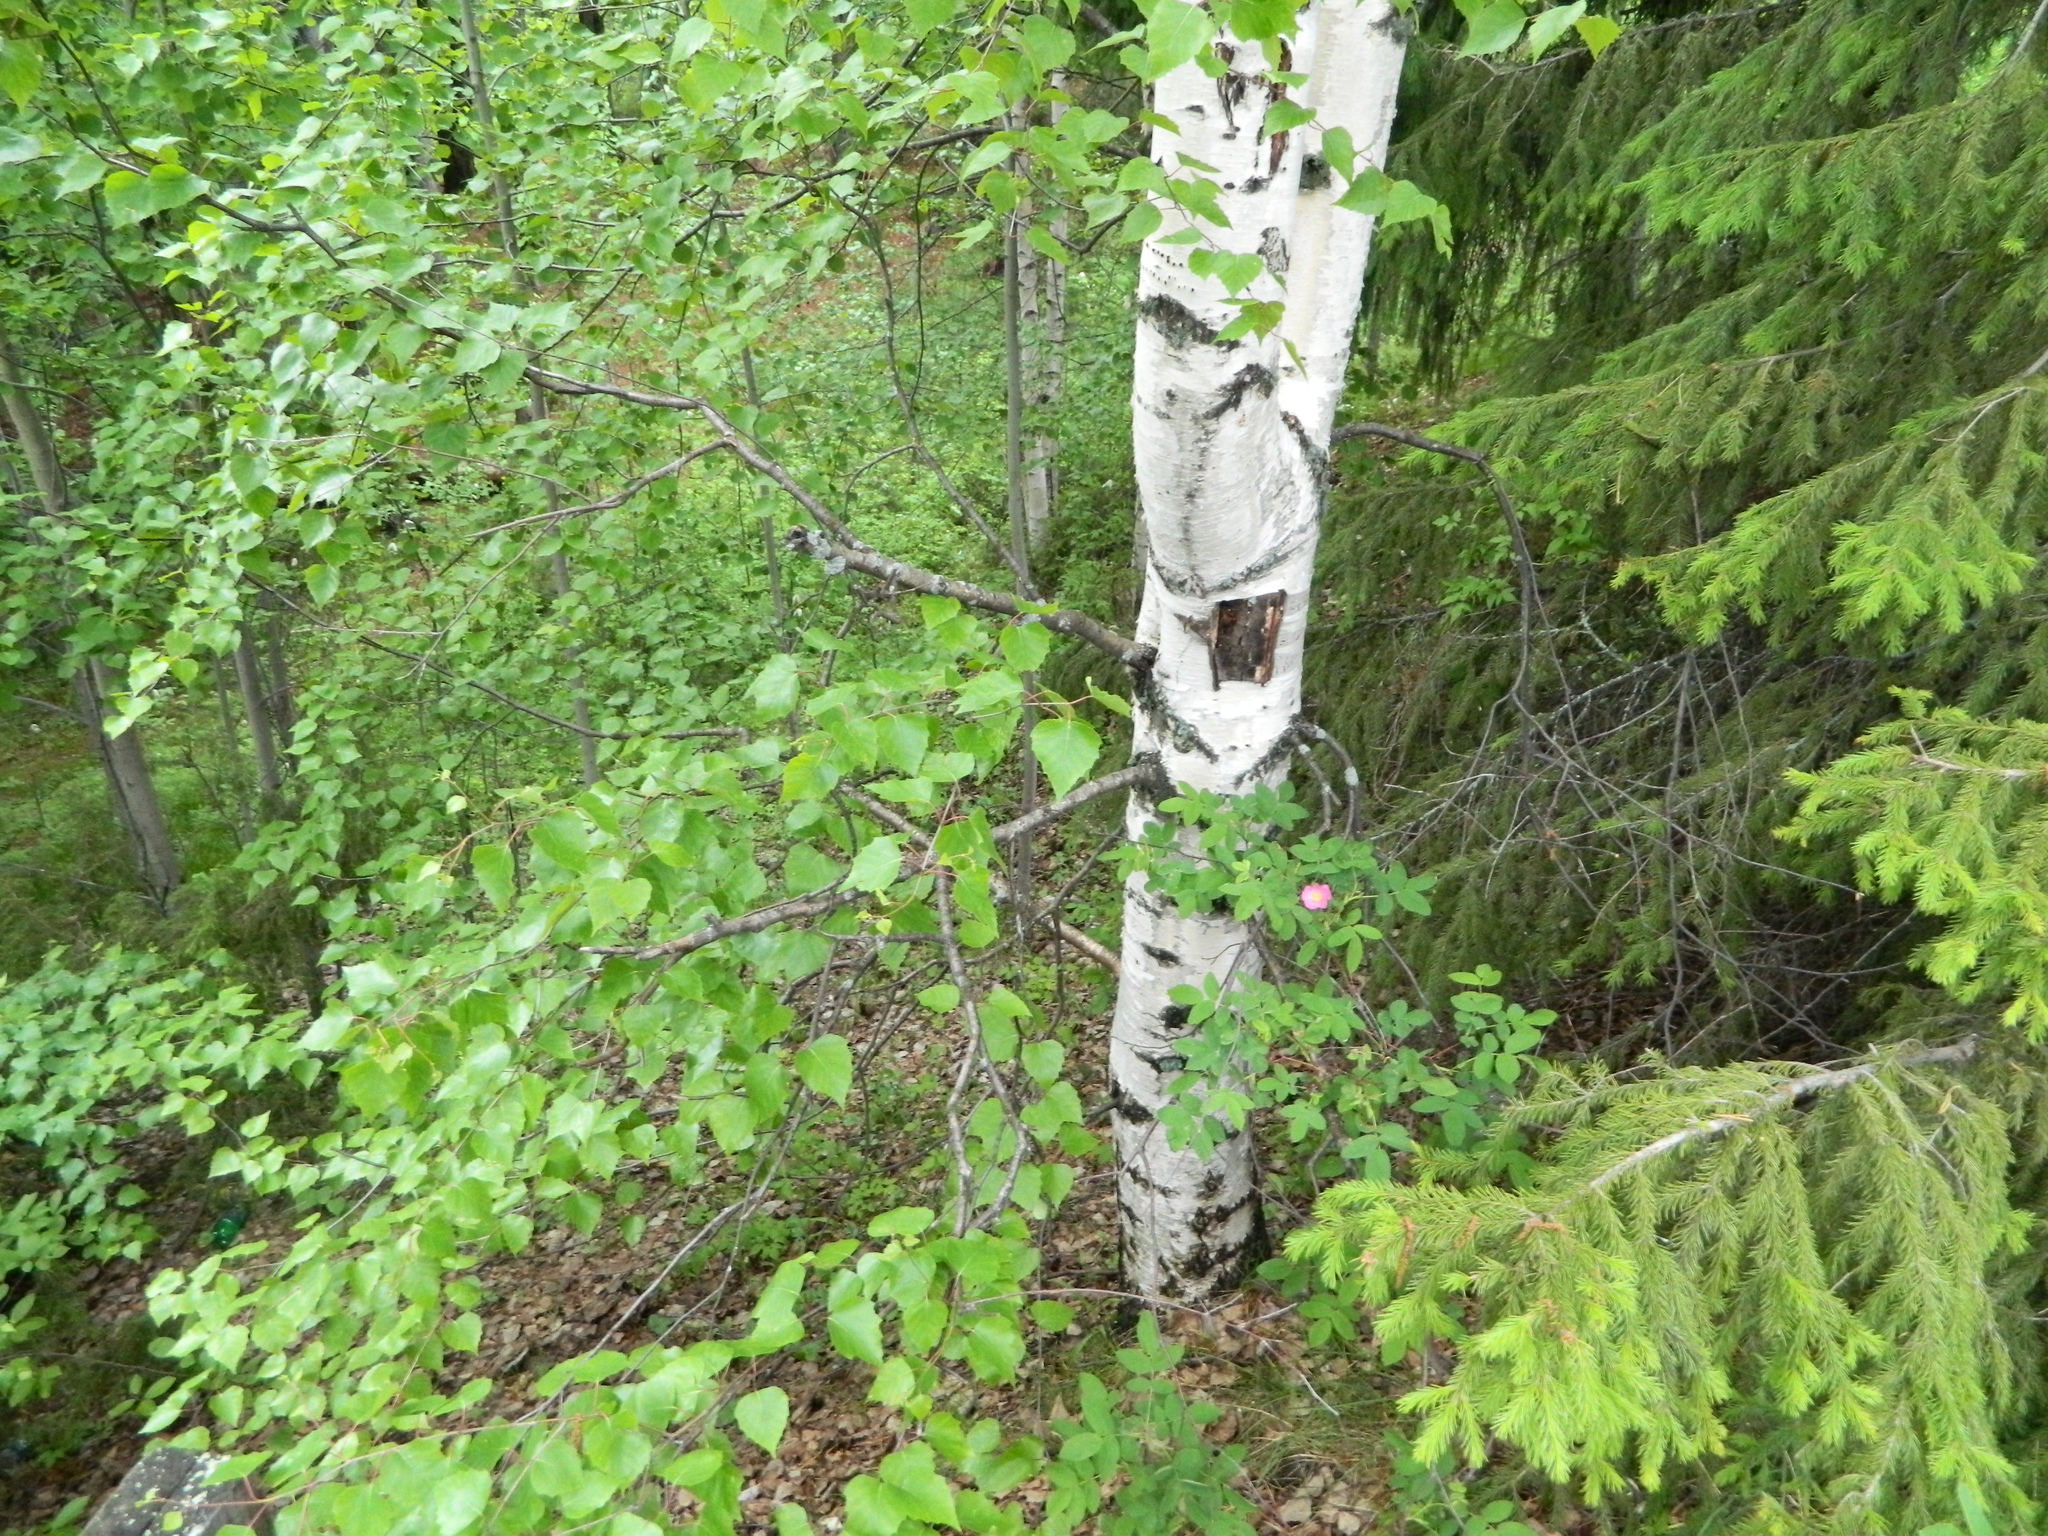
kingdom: Plantae
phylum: Tracheophyta
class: Magnoliopsida
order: Fagales
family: Betulaceae
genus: Betula
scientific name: Betula pubescens
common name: Downy birch
